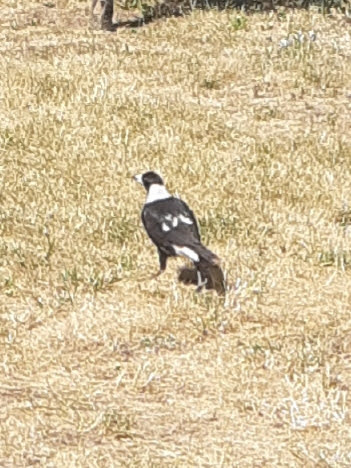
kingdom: Animalia
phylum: Chordata
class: Aves
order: Passeriformes
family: Cracticidae
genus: Gymnorhina
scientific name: Gymnorhina tibicen
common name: Australian magpie
